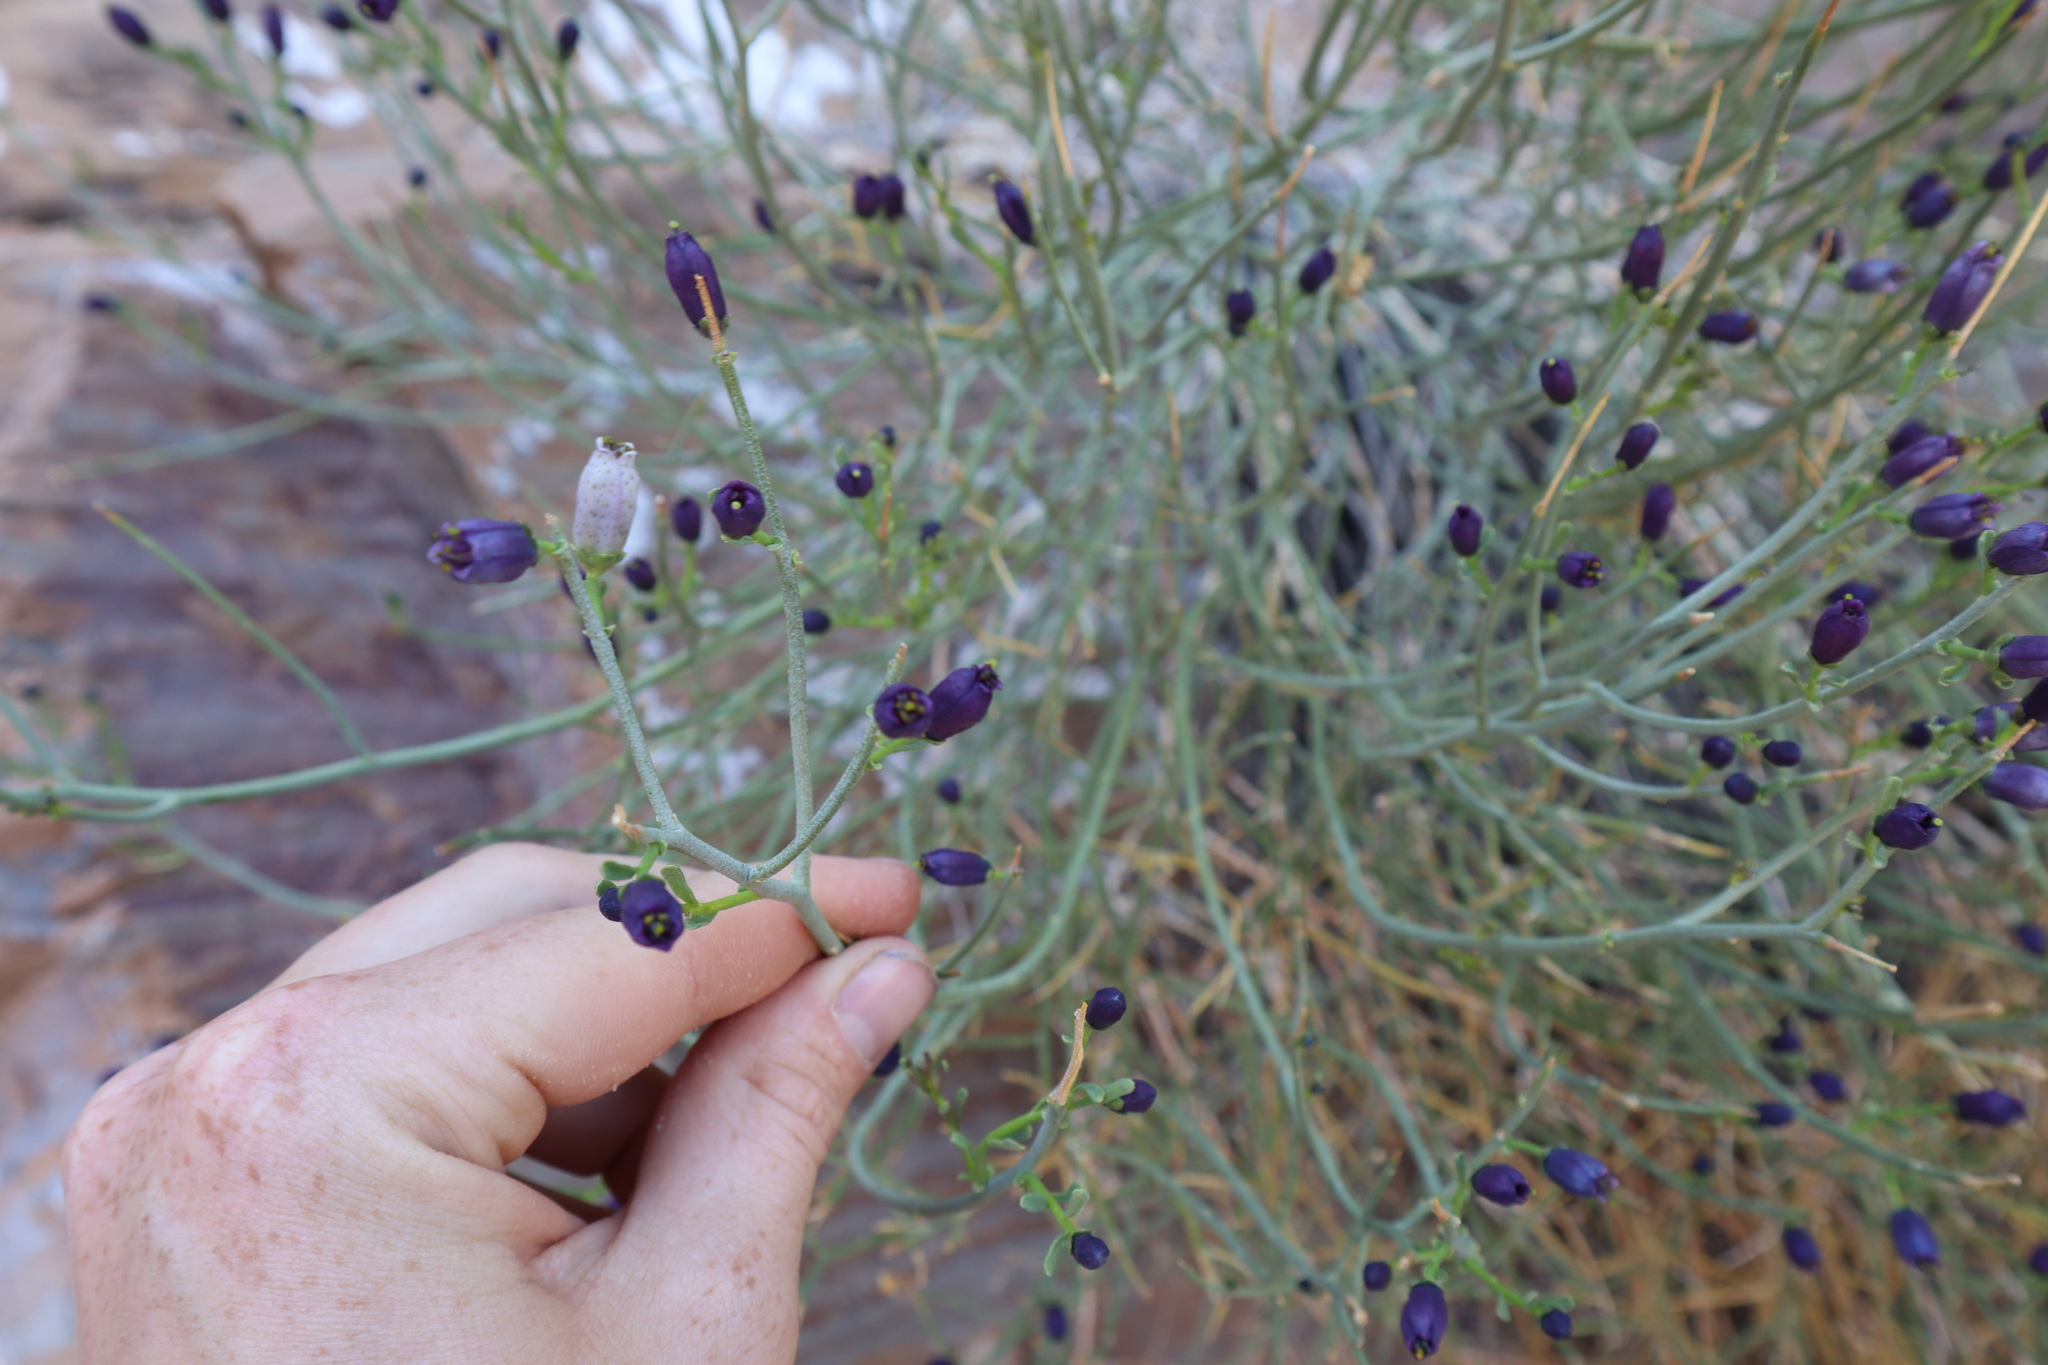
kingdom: Plantae
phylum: Tracheophyta
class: Magnoliopsida
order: Sapindales
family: Rutaceae
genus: Thamnosma
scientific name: Thamnosma montana
